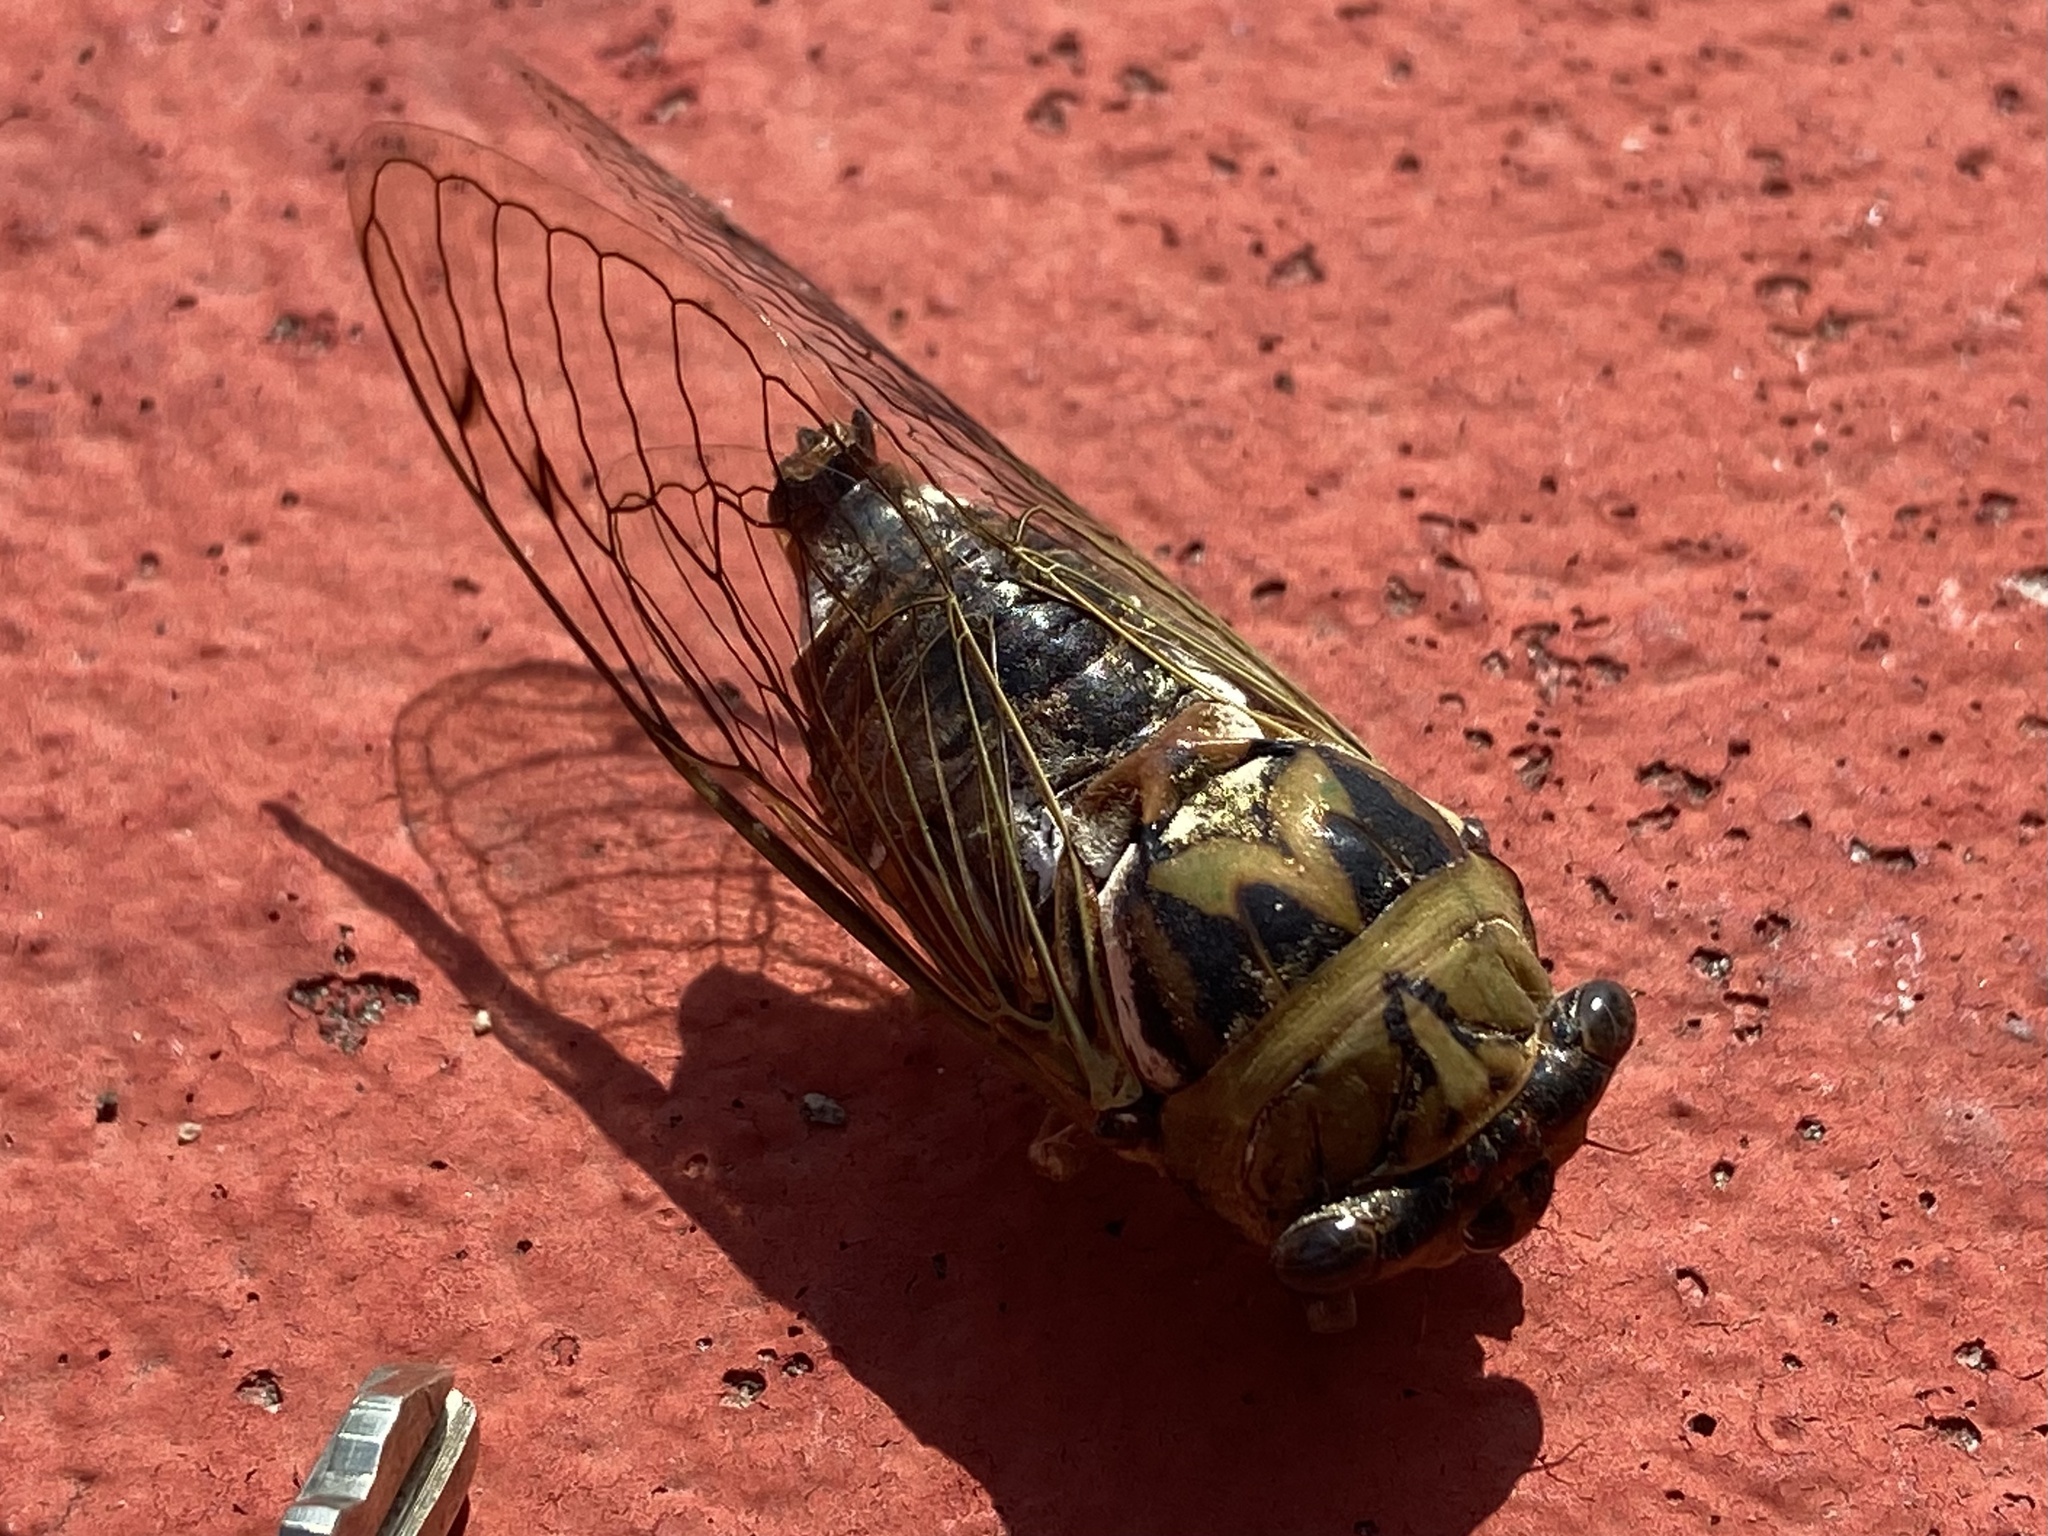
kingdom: Animalia
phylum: Arthropoda
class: Insecta
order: Hemiptera
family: Cicadidae
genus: Megatibicen
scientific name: Megatibicen resh
